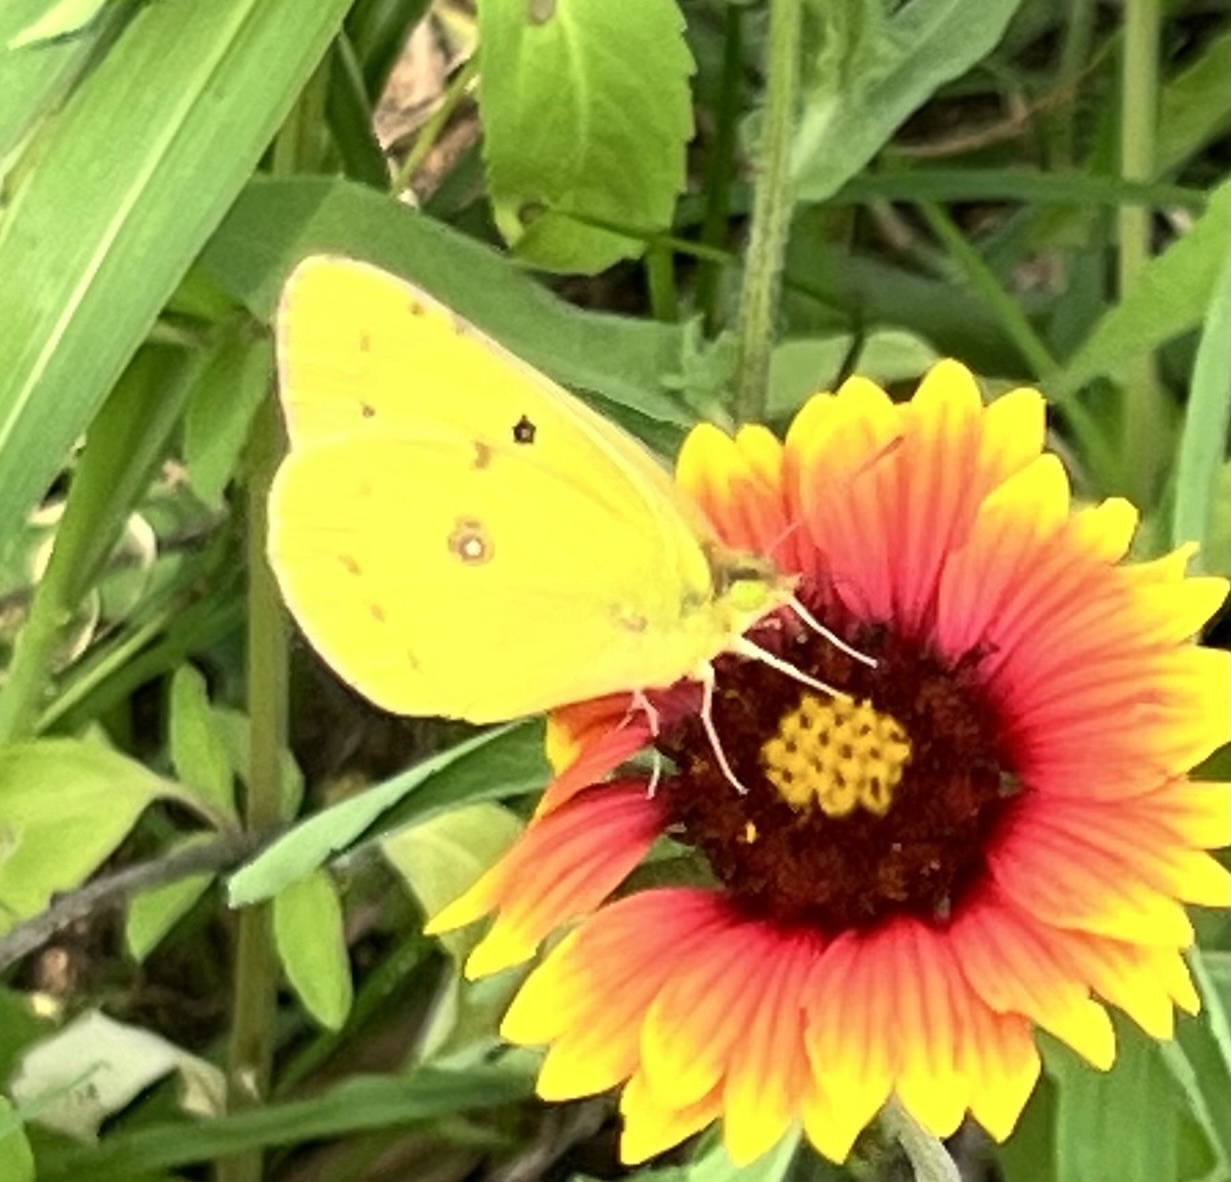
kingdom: Animalia
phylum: Arthropoda
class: Insecta
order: Lepidoptera
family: Pieridae
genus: Colias
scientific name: Colias eurytheme
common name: Alfalfa butterfly
